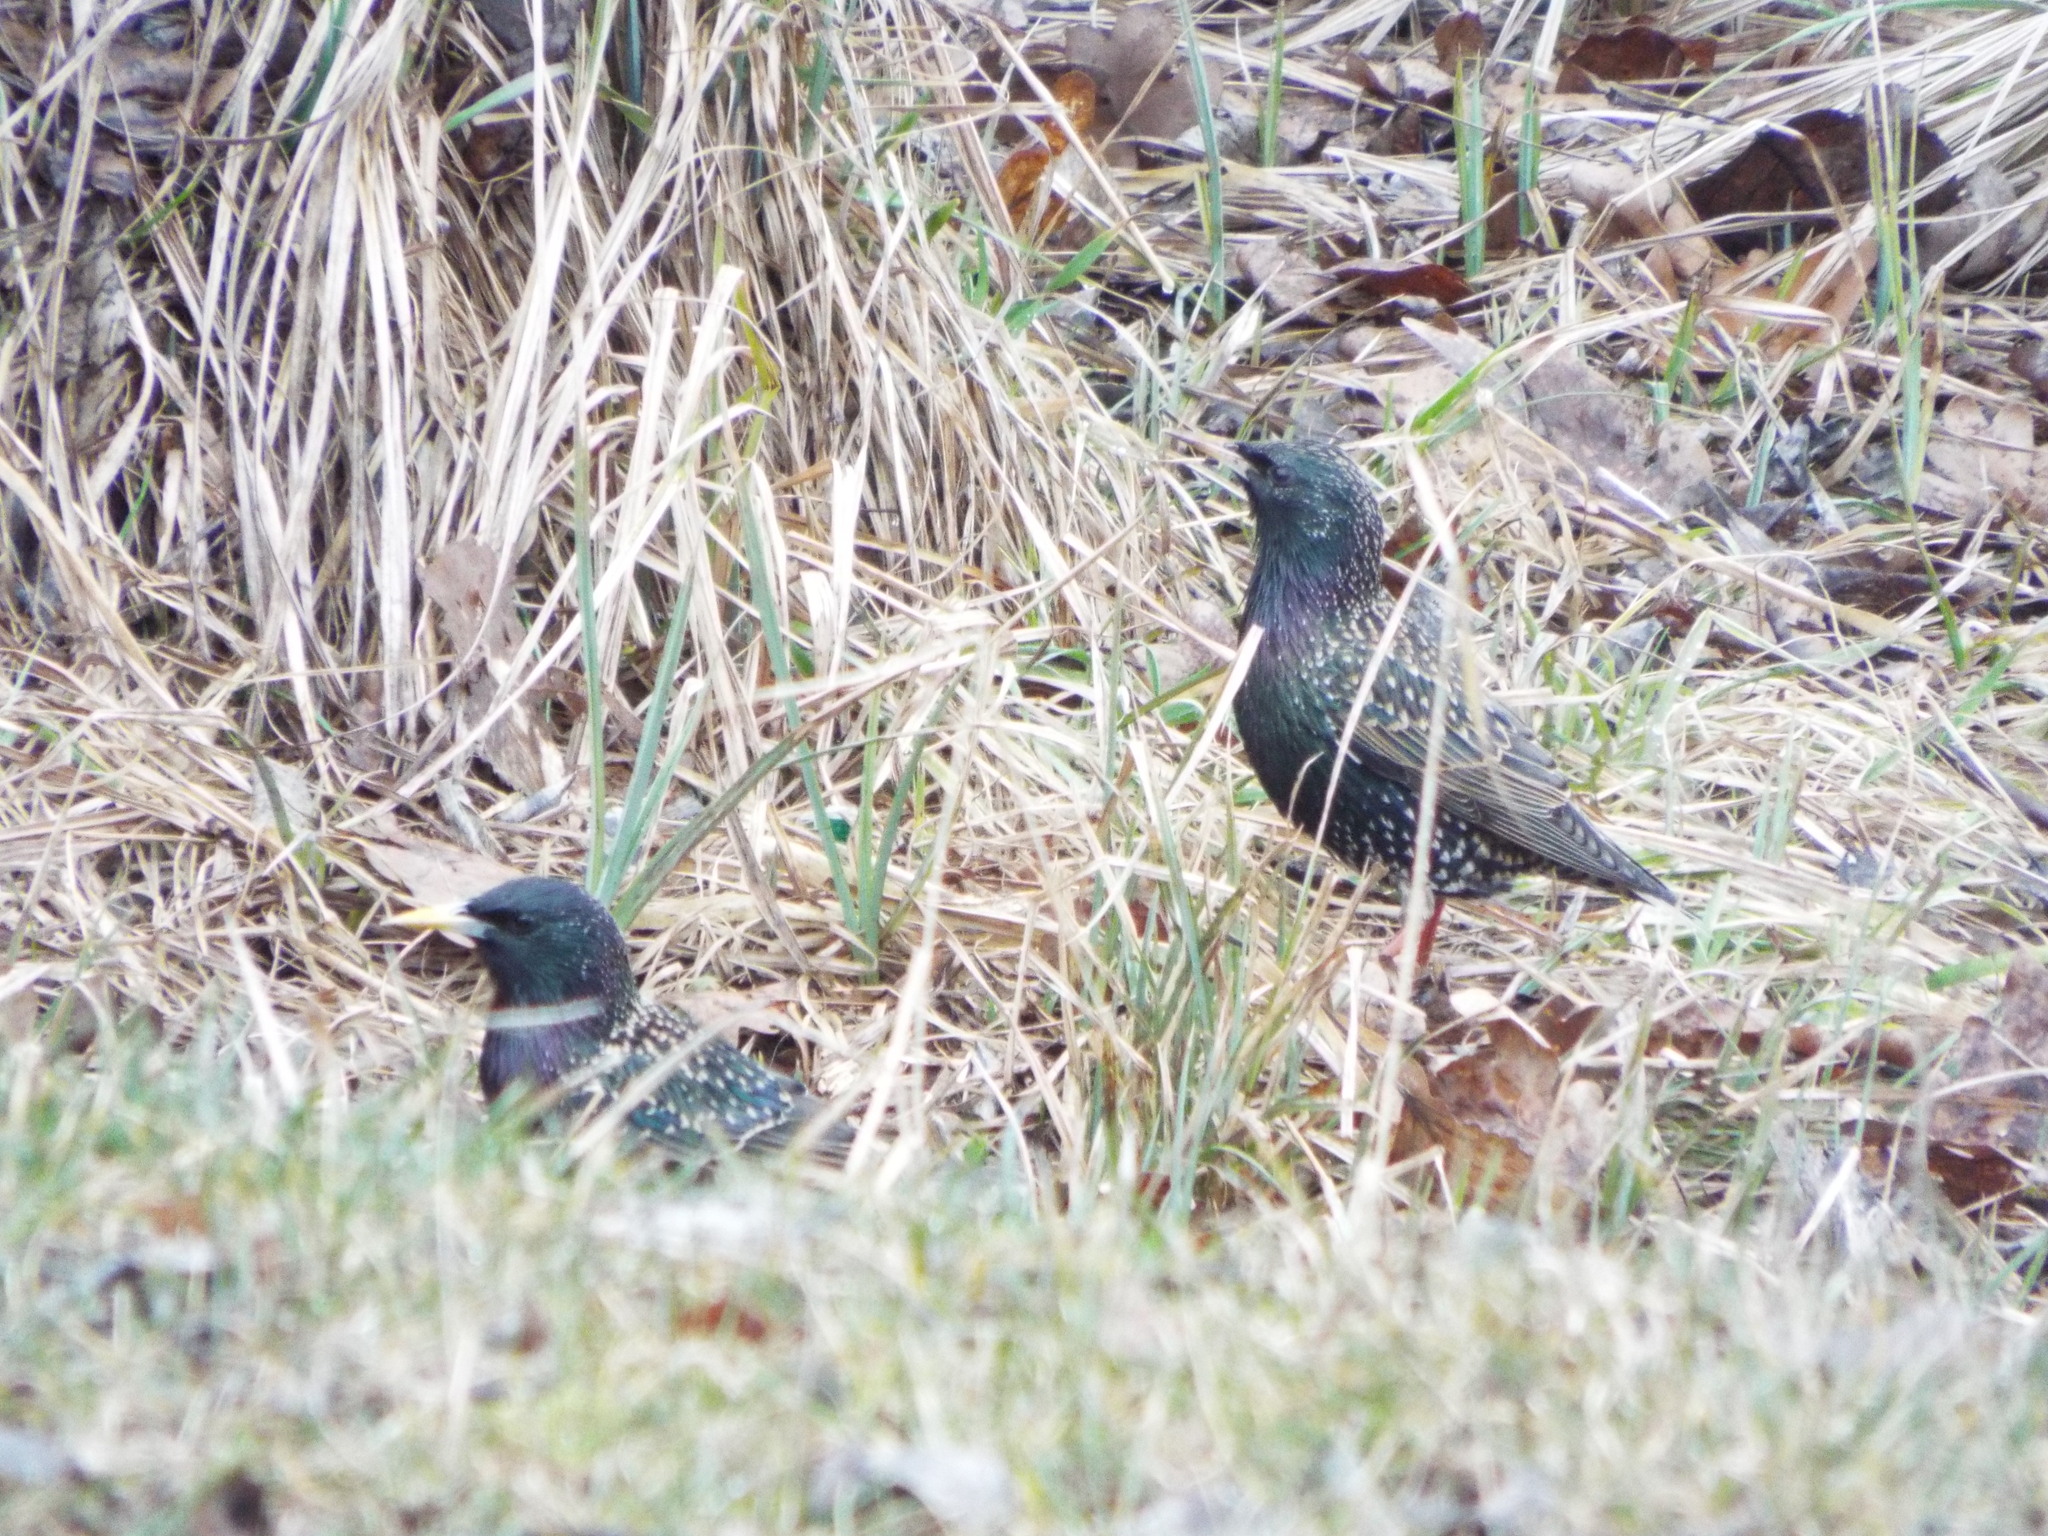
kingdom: Animalia
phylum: Chordata
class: Aves
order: Passeriformes
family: Sturnidae
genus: Sturnus
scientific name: Sturnus vulgaris
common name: Common starling
